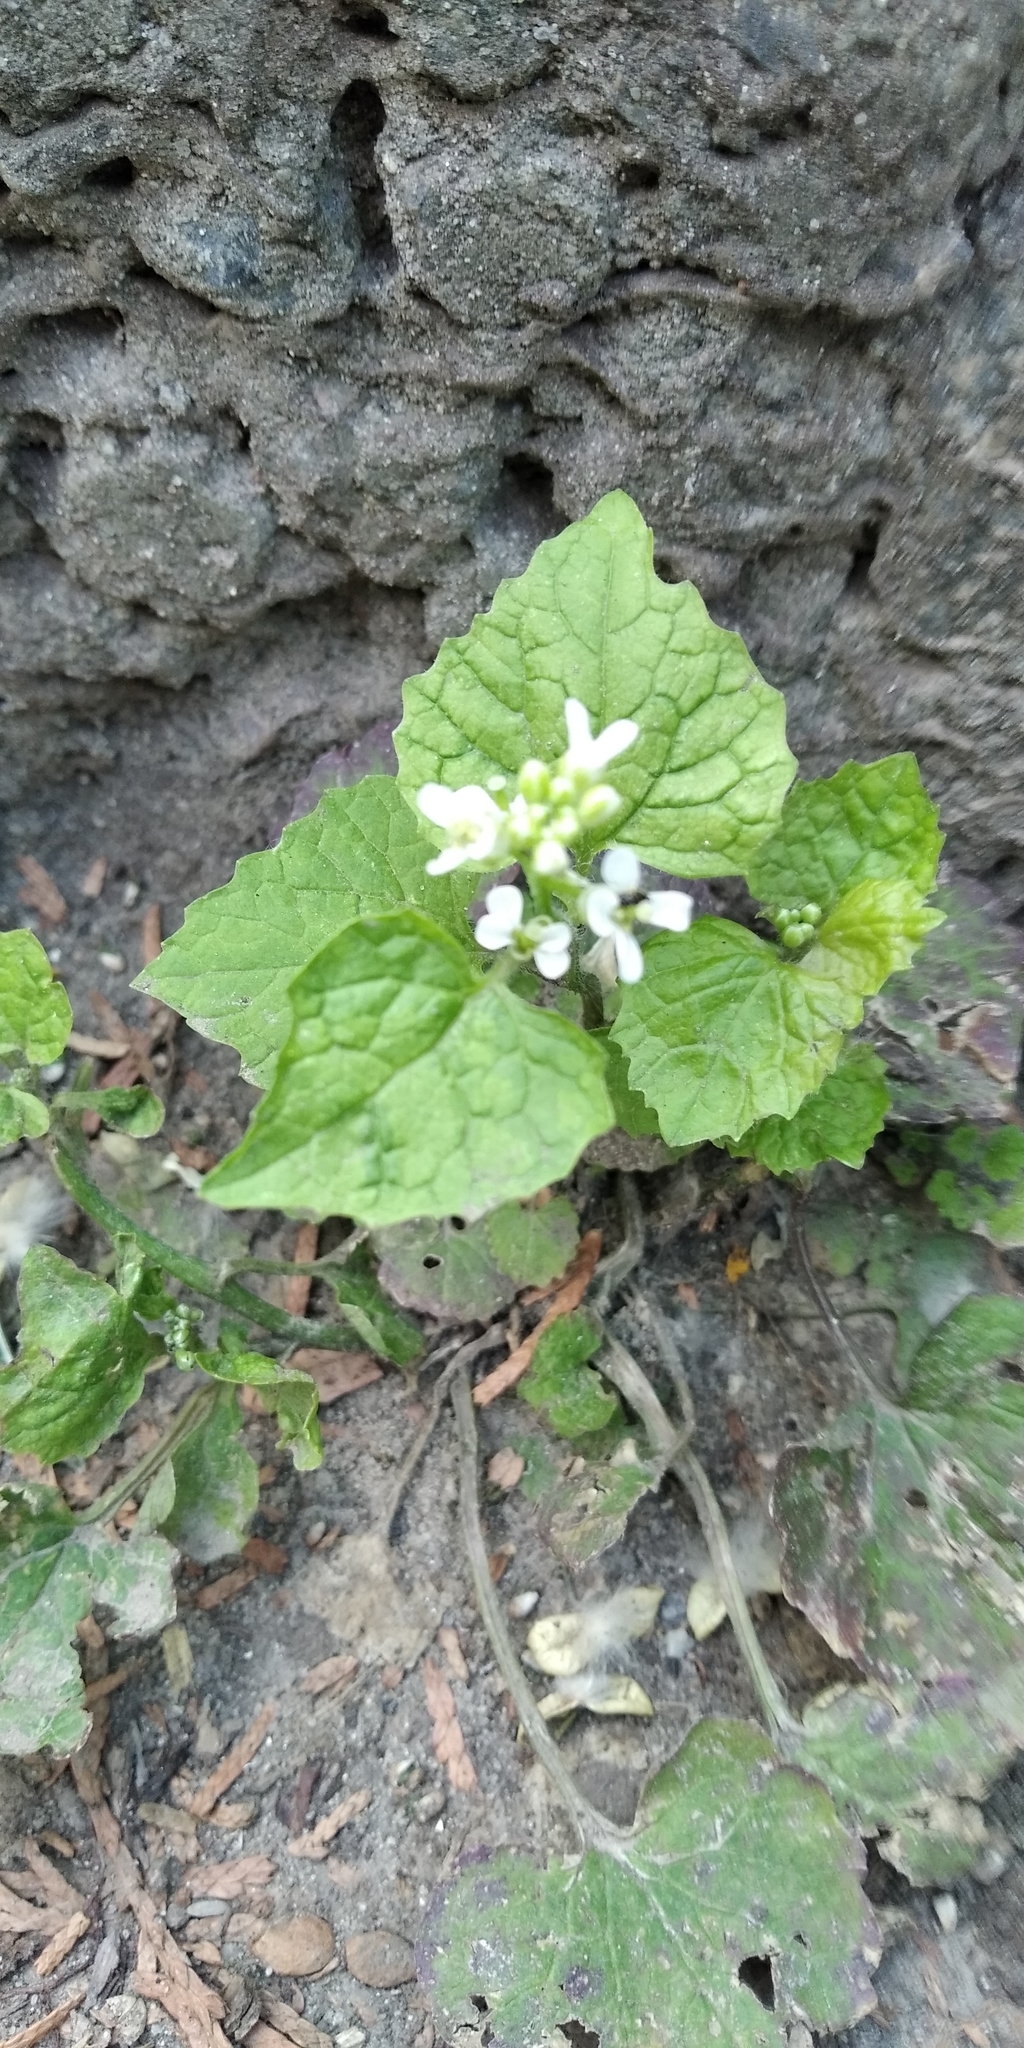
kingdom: Plantae
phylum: Tracheophyta
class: Magnoliopsida
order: Brassicales
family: Brassicaceae
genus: Alliaria
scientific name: Alliaria petiolata
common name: Garlic mustard
